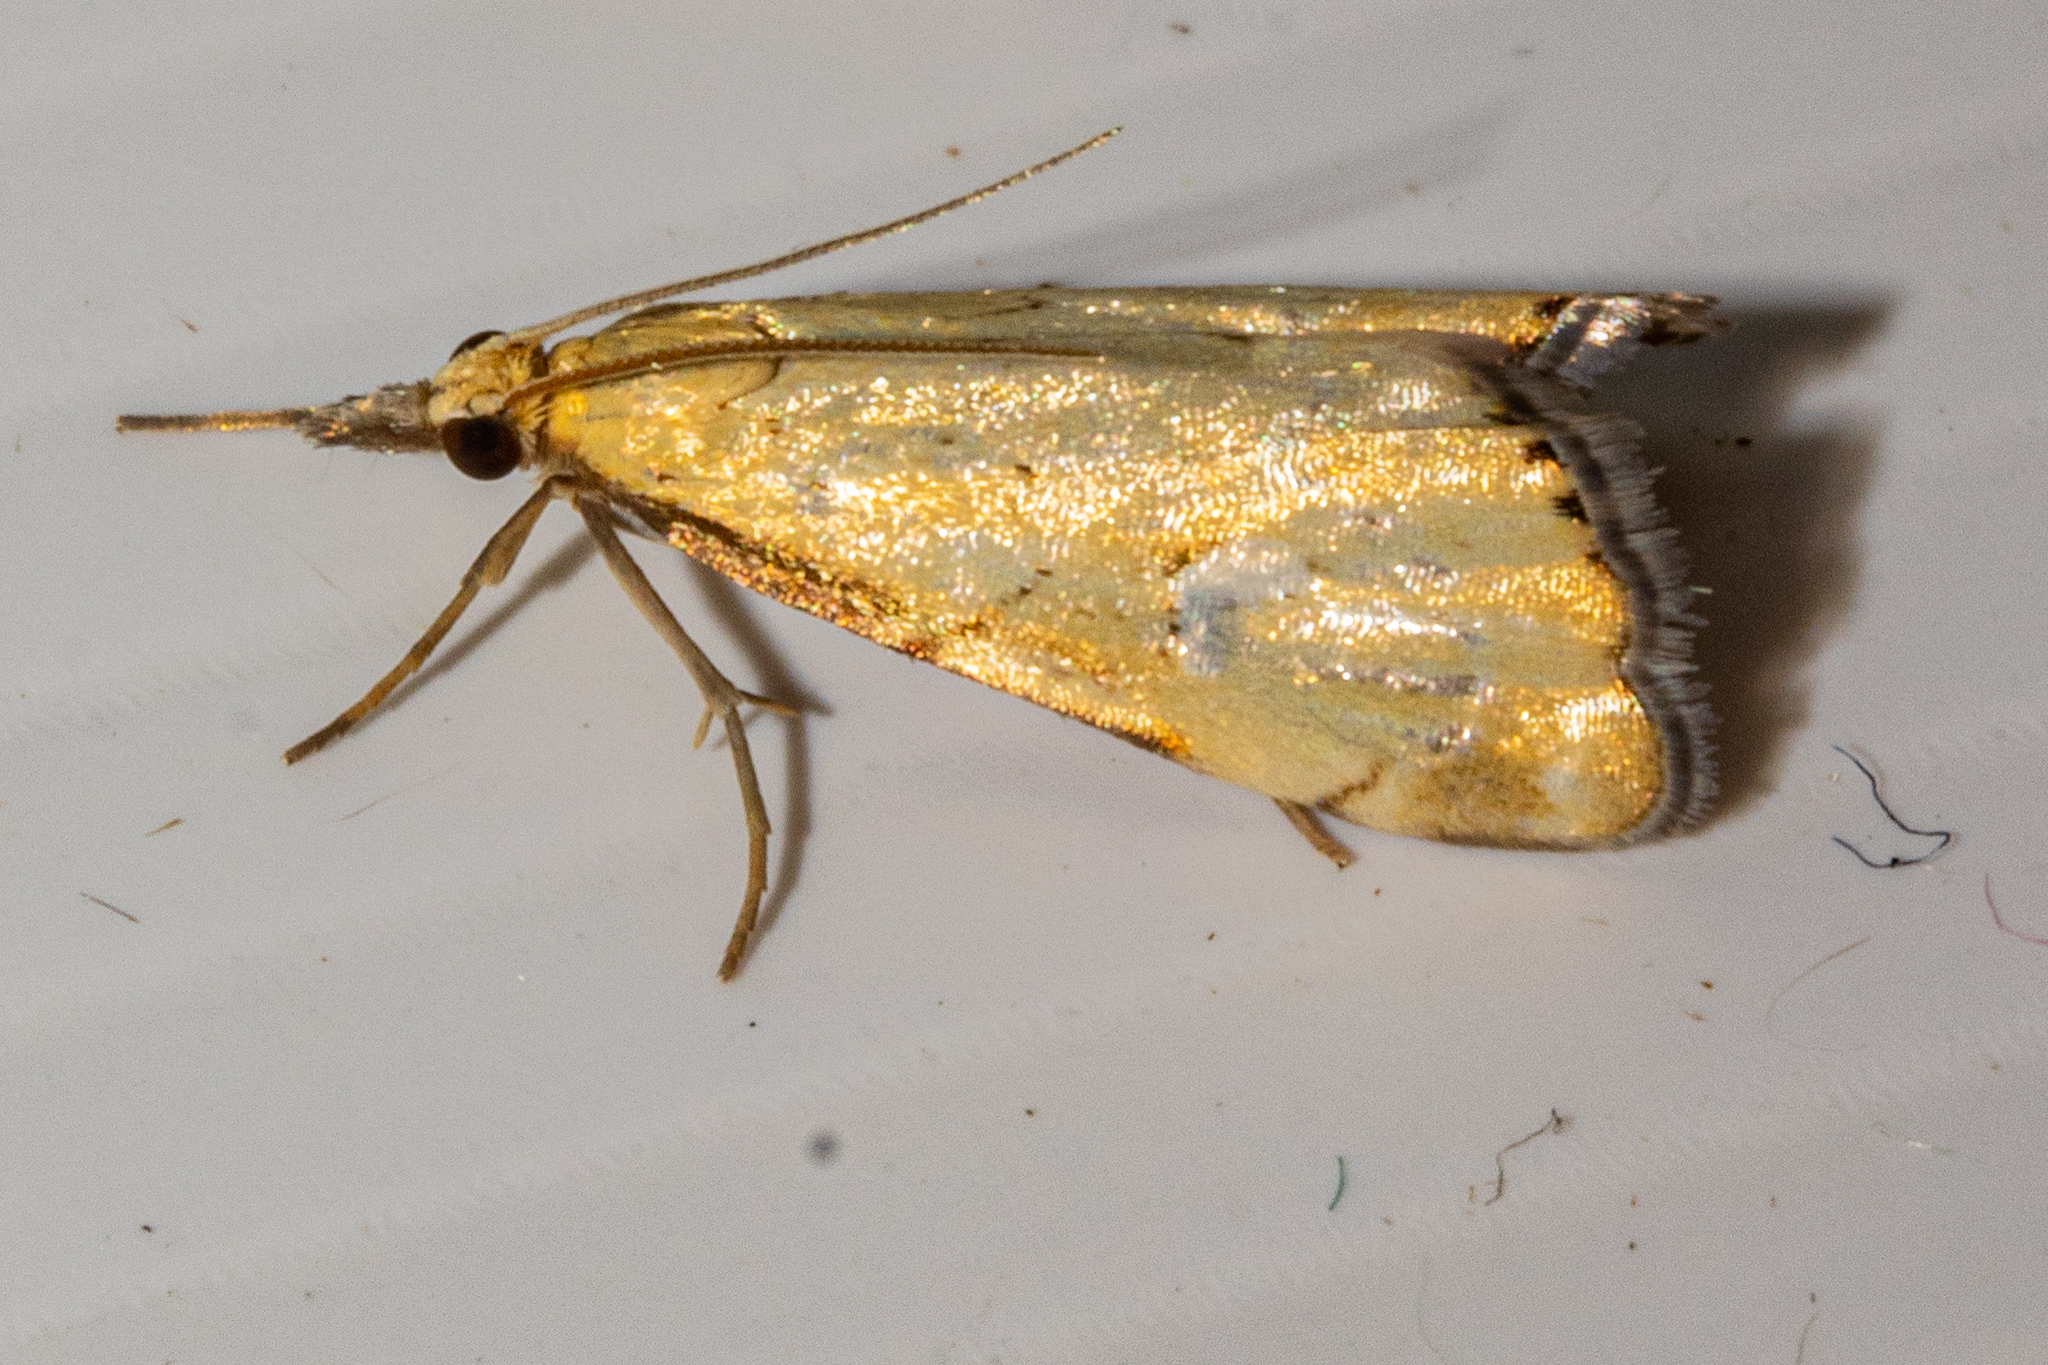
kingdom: Animalia
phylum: Arthropoda
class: Insecta
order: Lepidoptera
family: Crambidae
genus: Glaucocharis
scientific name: Glaucocharis lepidella
